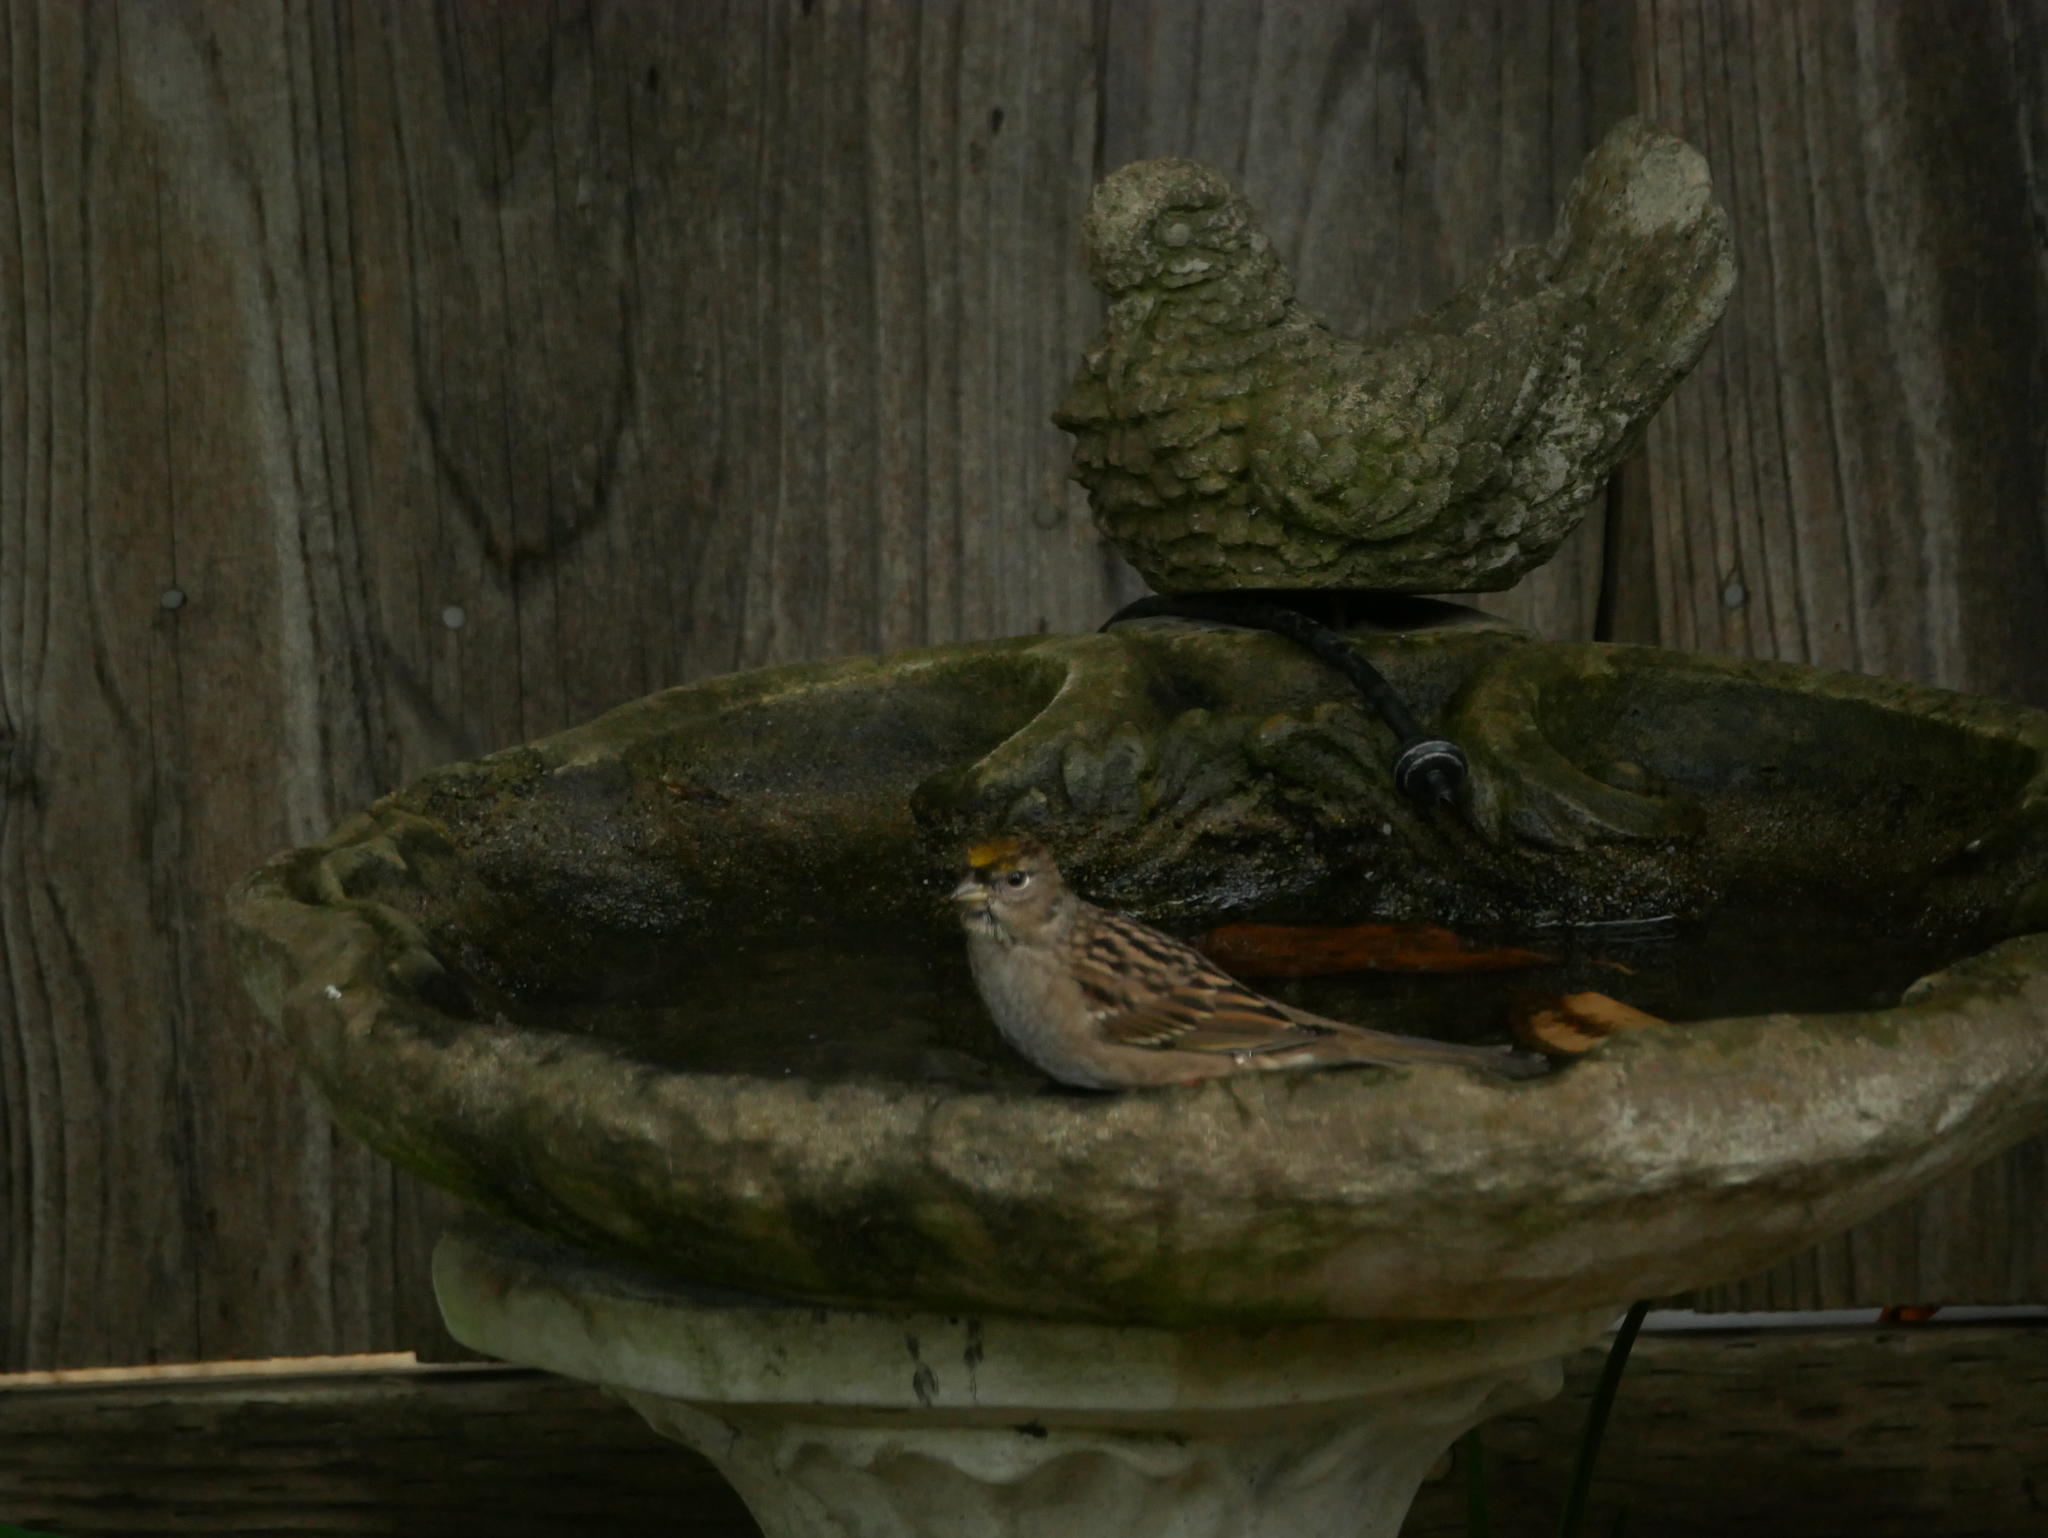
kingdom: Animalia
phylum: Chordata
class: Aves
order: Passeriformes
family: Passerellidae
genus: Zonotrichia
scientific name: Zonotrichia atricapilla
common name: Golden-crowned sparrow
